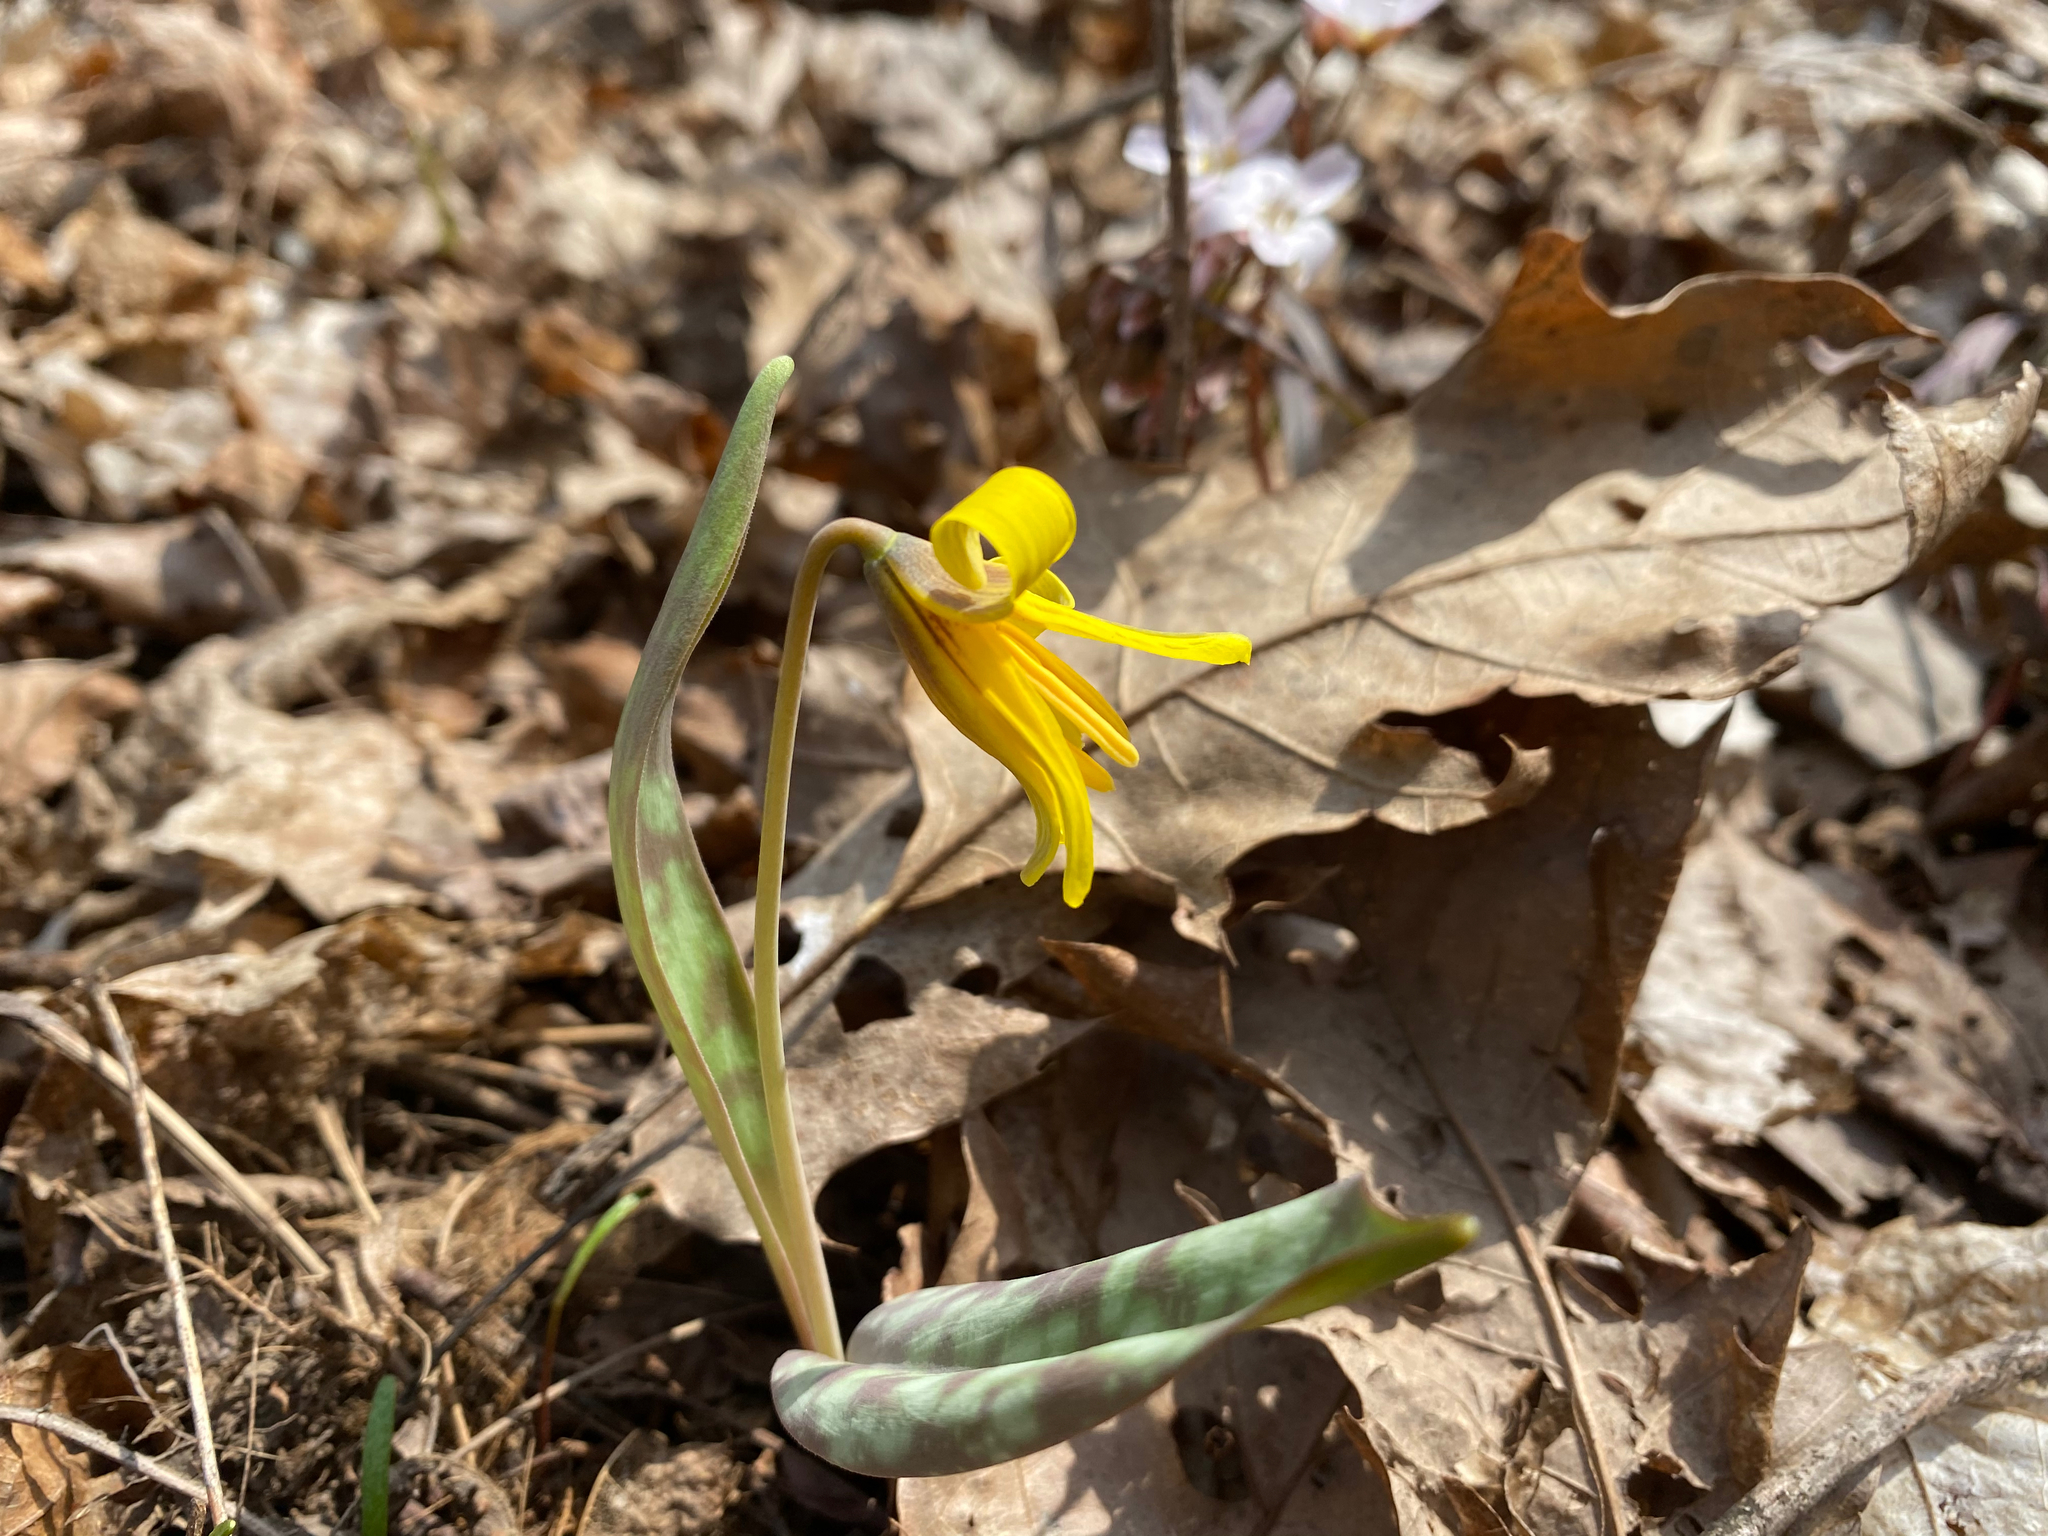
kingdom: Plantae
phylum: Tracheophyta
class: Liliopsida
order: Liliales
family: Liliaceae
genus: Erythronium
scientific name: Erythronium americanum
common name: Yellow adder's-tongue
